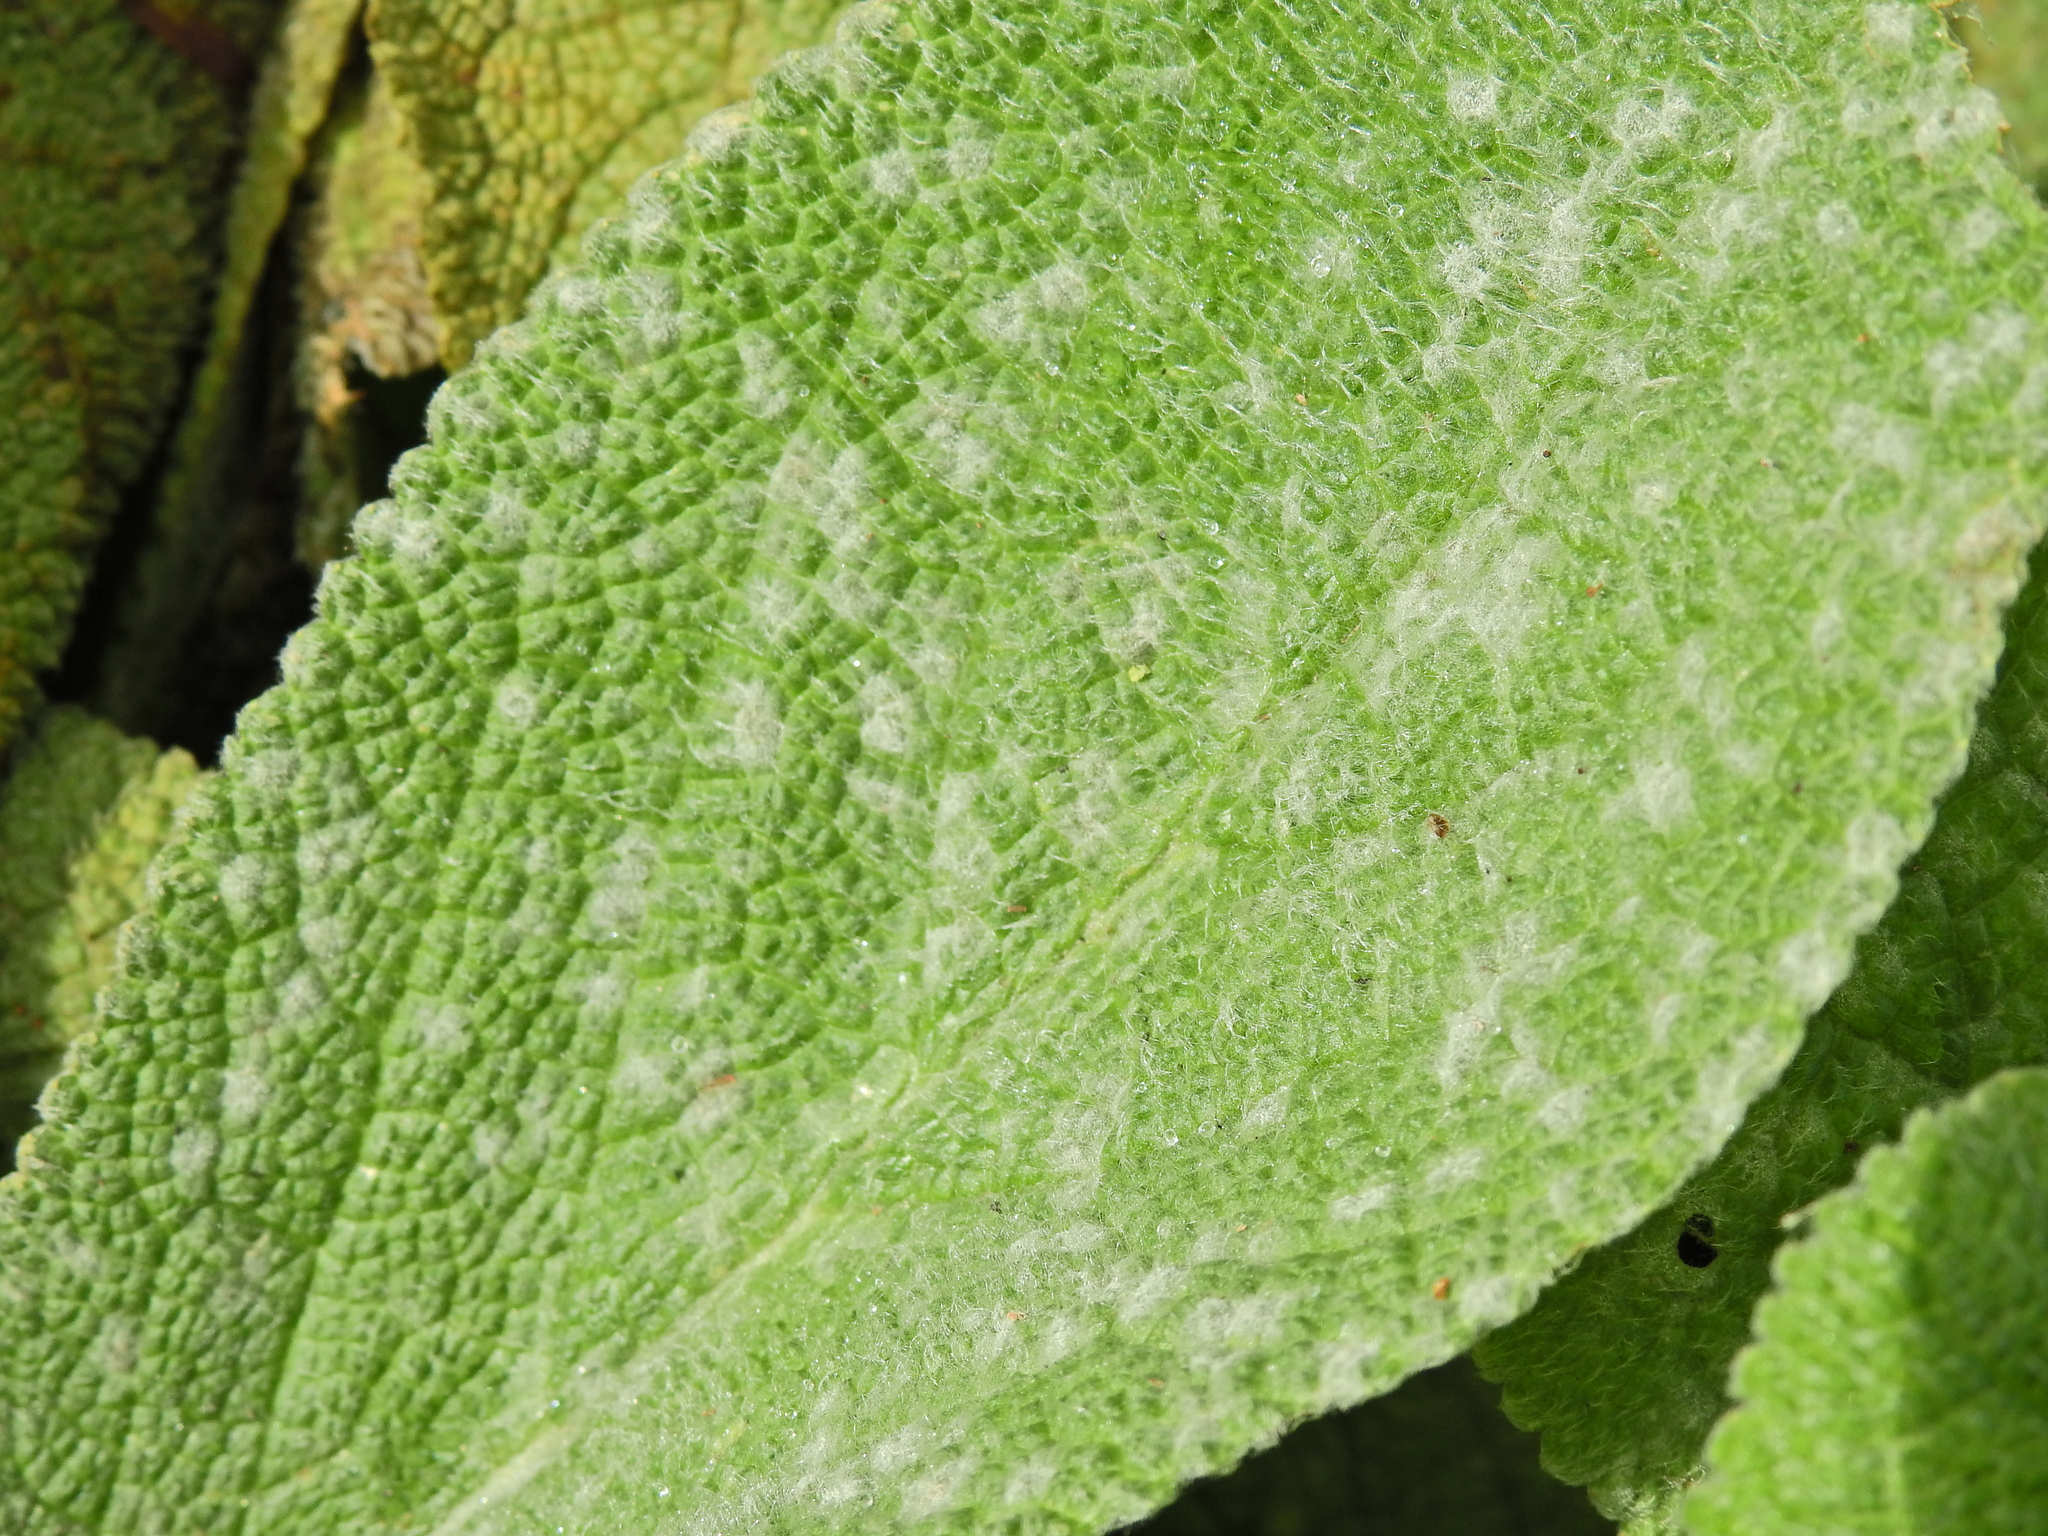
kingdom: Fungi
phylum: Ascomycota
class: Leotiomycetes
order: Helotiales
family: Erysiphaceae
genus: Golovinomyces
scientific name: Golovinomyces asperifoliorum
